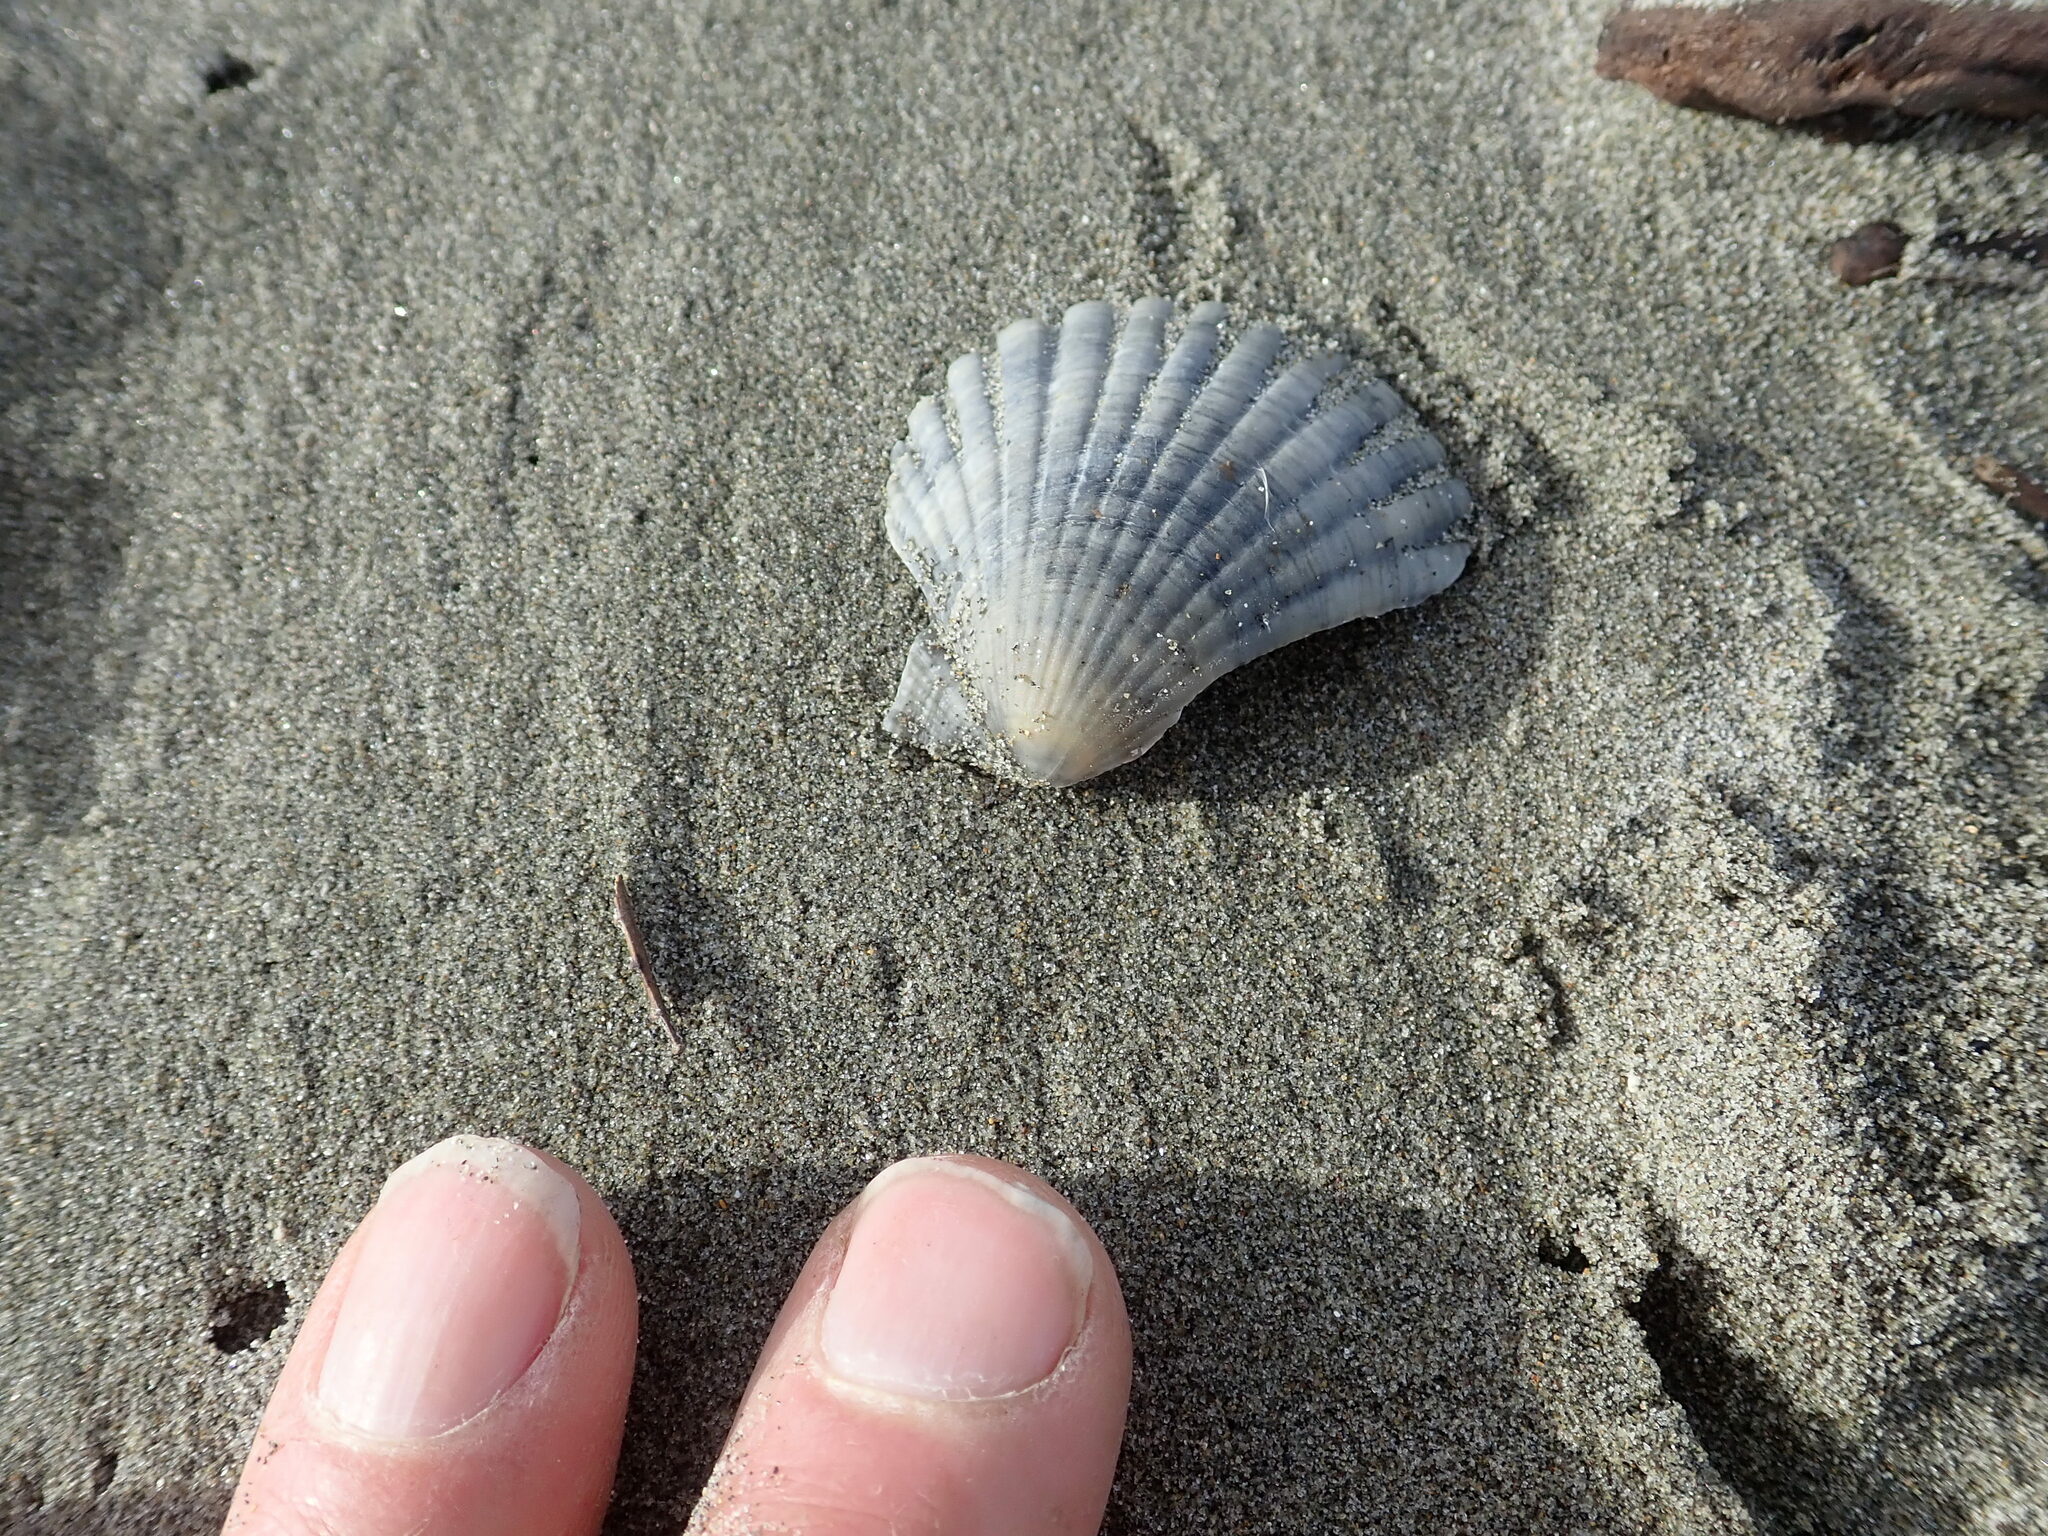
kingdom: Animalia
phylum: Mollusca
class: Bivalvia
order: Pectinida
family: Pectinidae
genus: Pecten
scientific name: Pecten novaezelandiae
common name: New zealand scallop
